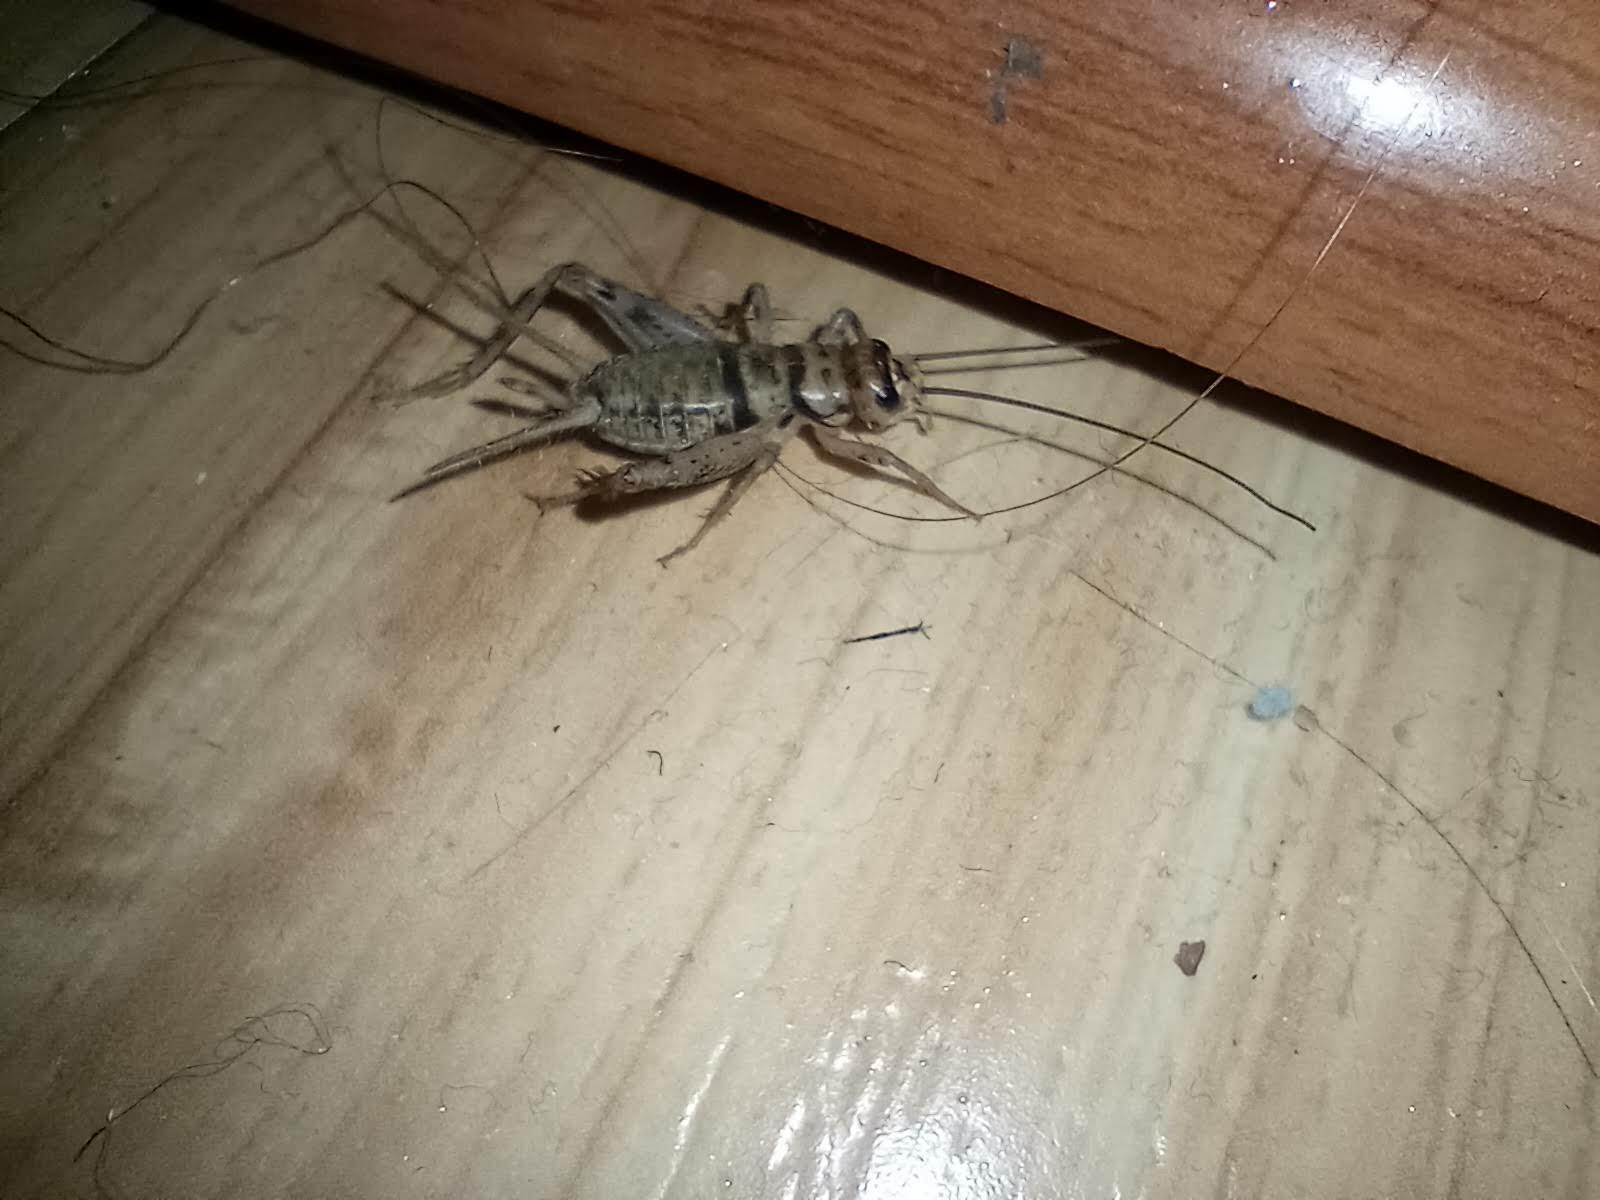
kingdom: Animalia
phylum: Arthropoda
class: Insecta
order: Orthoptera
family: Gryllidae
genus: Gryllodes
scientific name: Gryllodes sigillatus
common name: Tropical house cricket
